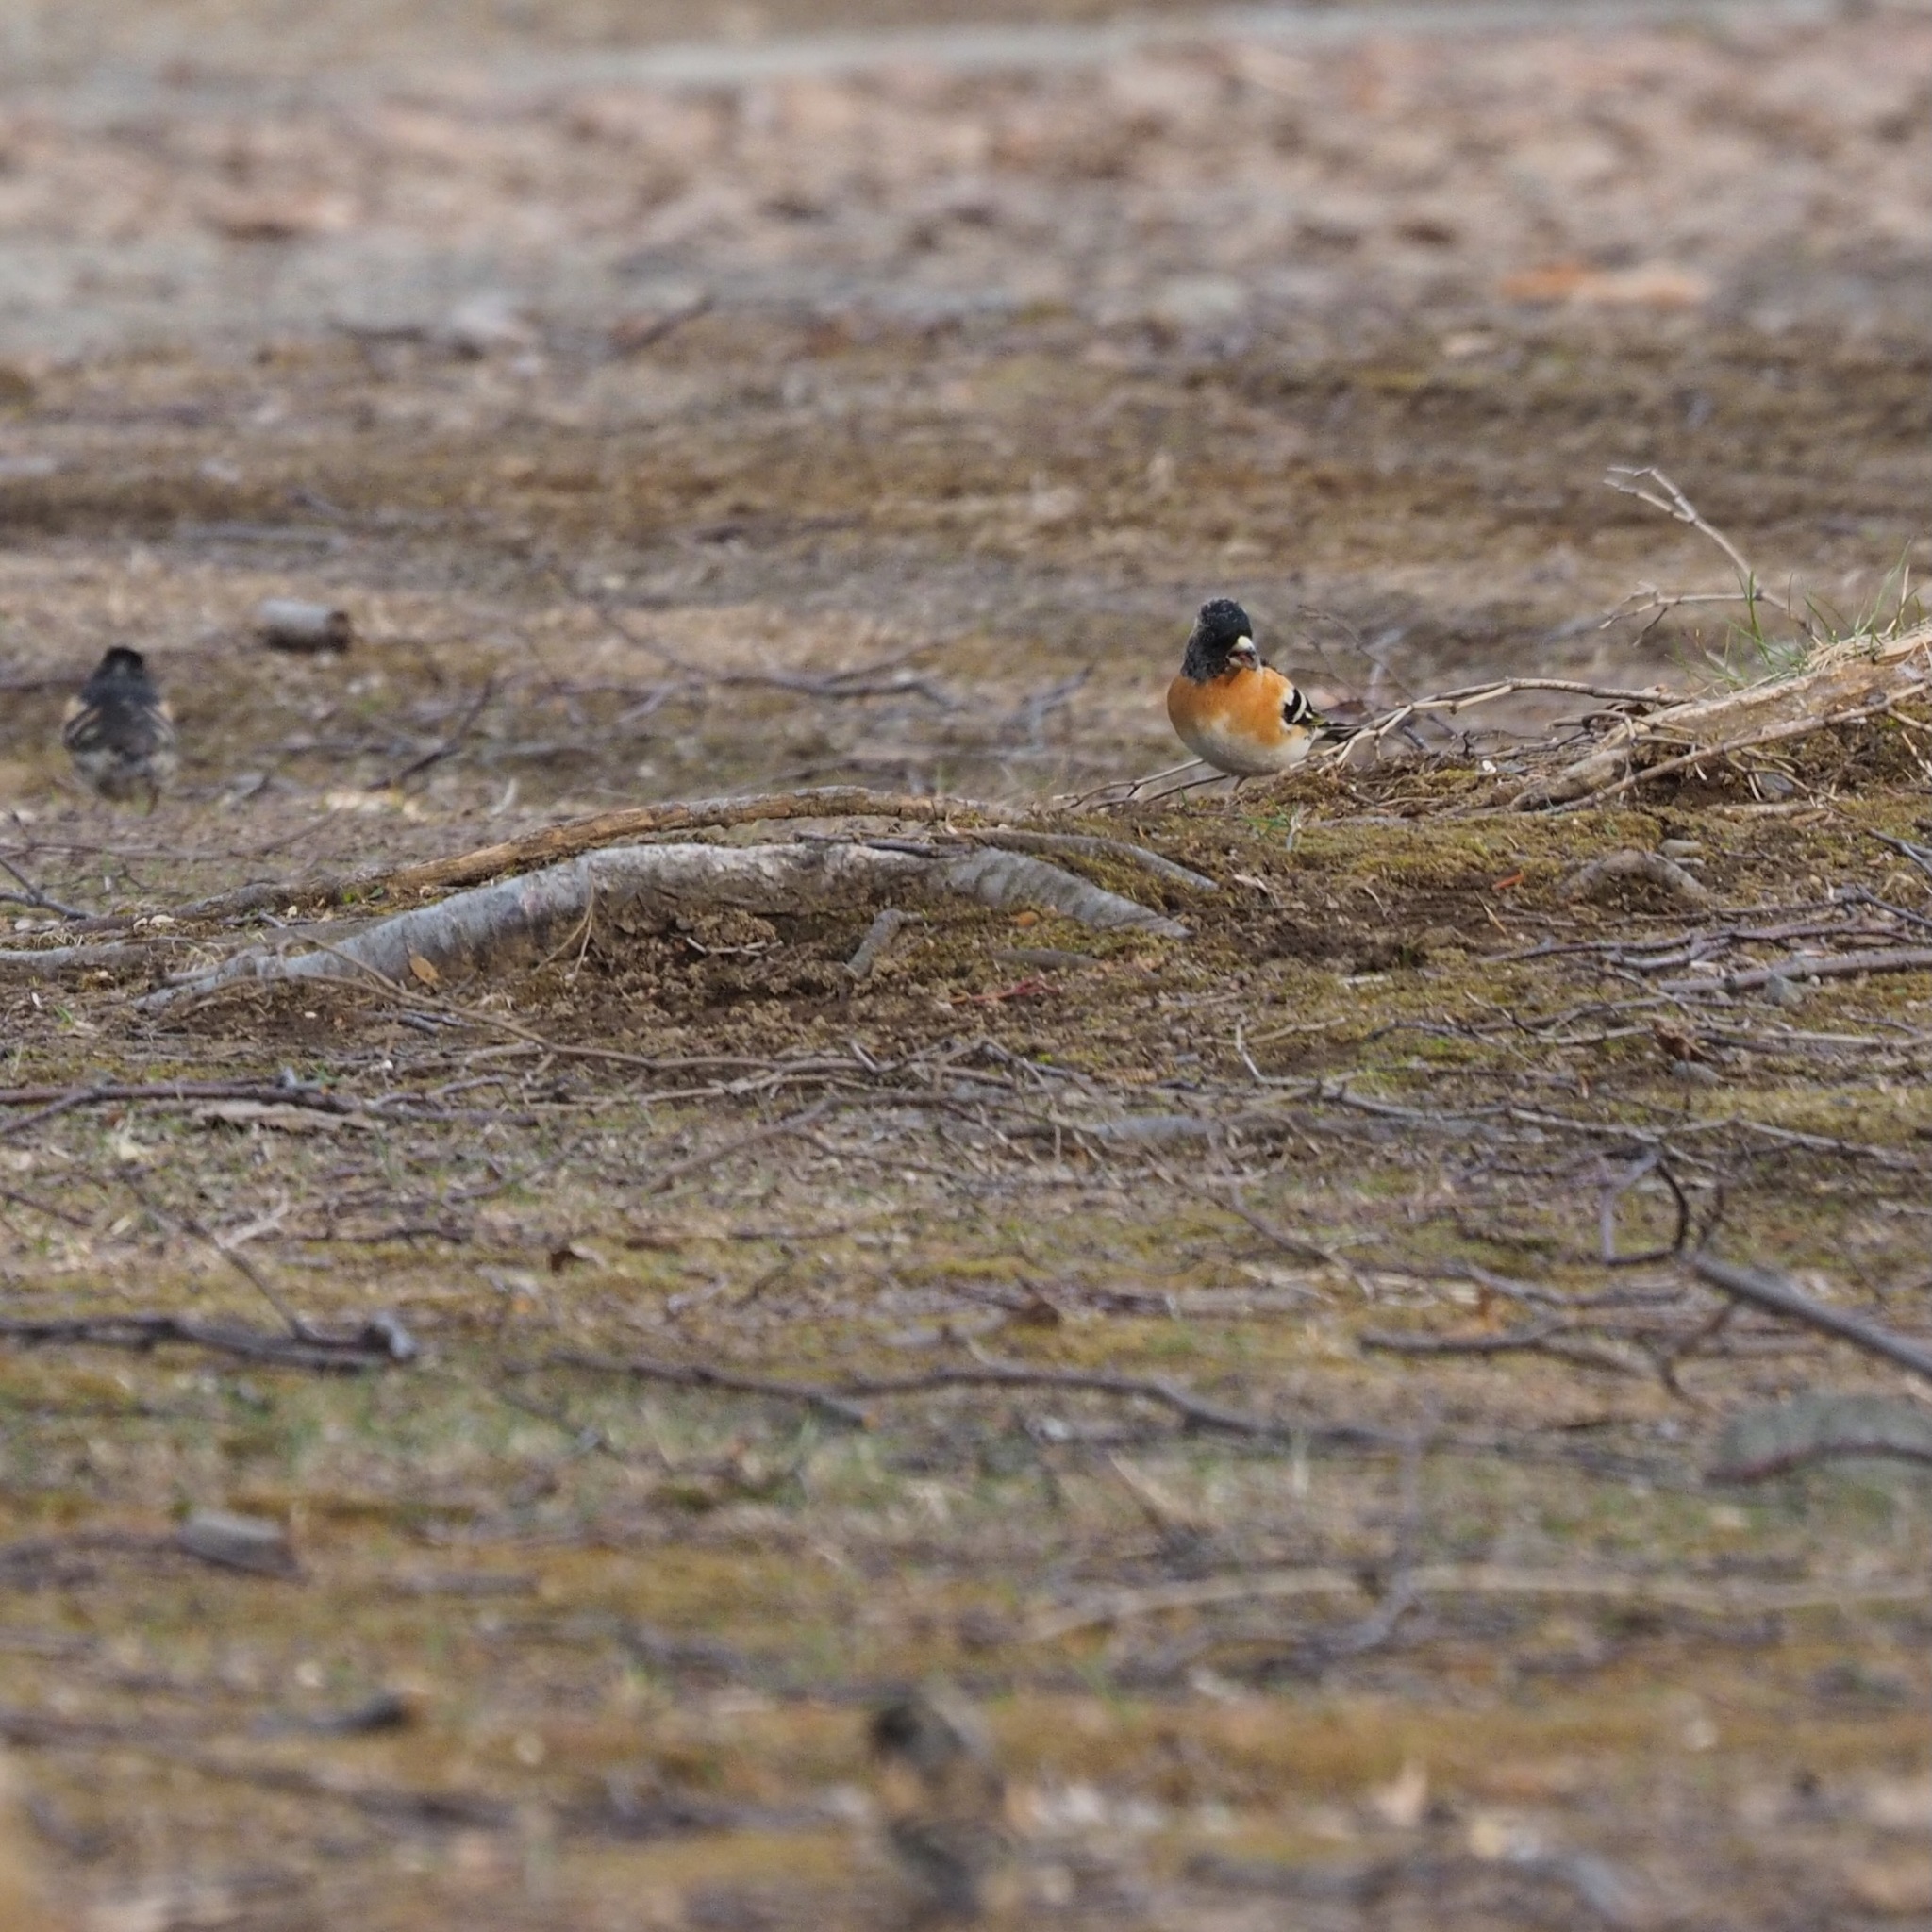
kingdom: Animalia
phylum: Chordata
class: Aves
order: Passeriformes
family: Fringillidae
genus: Fringilla
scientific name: Fringilla montifringilla
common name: Brambling
